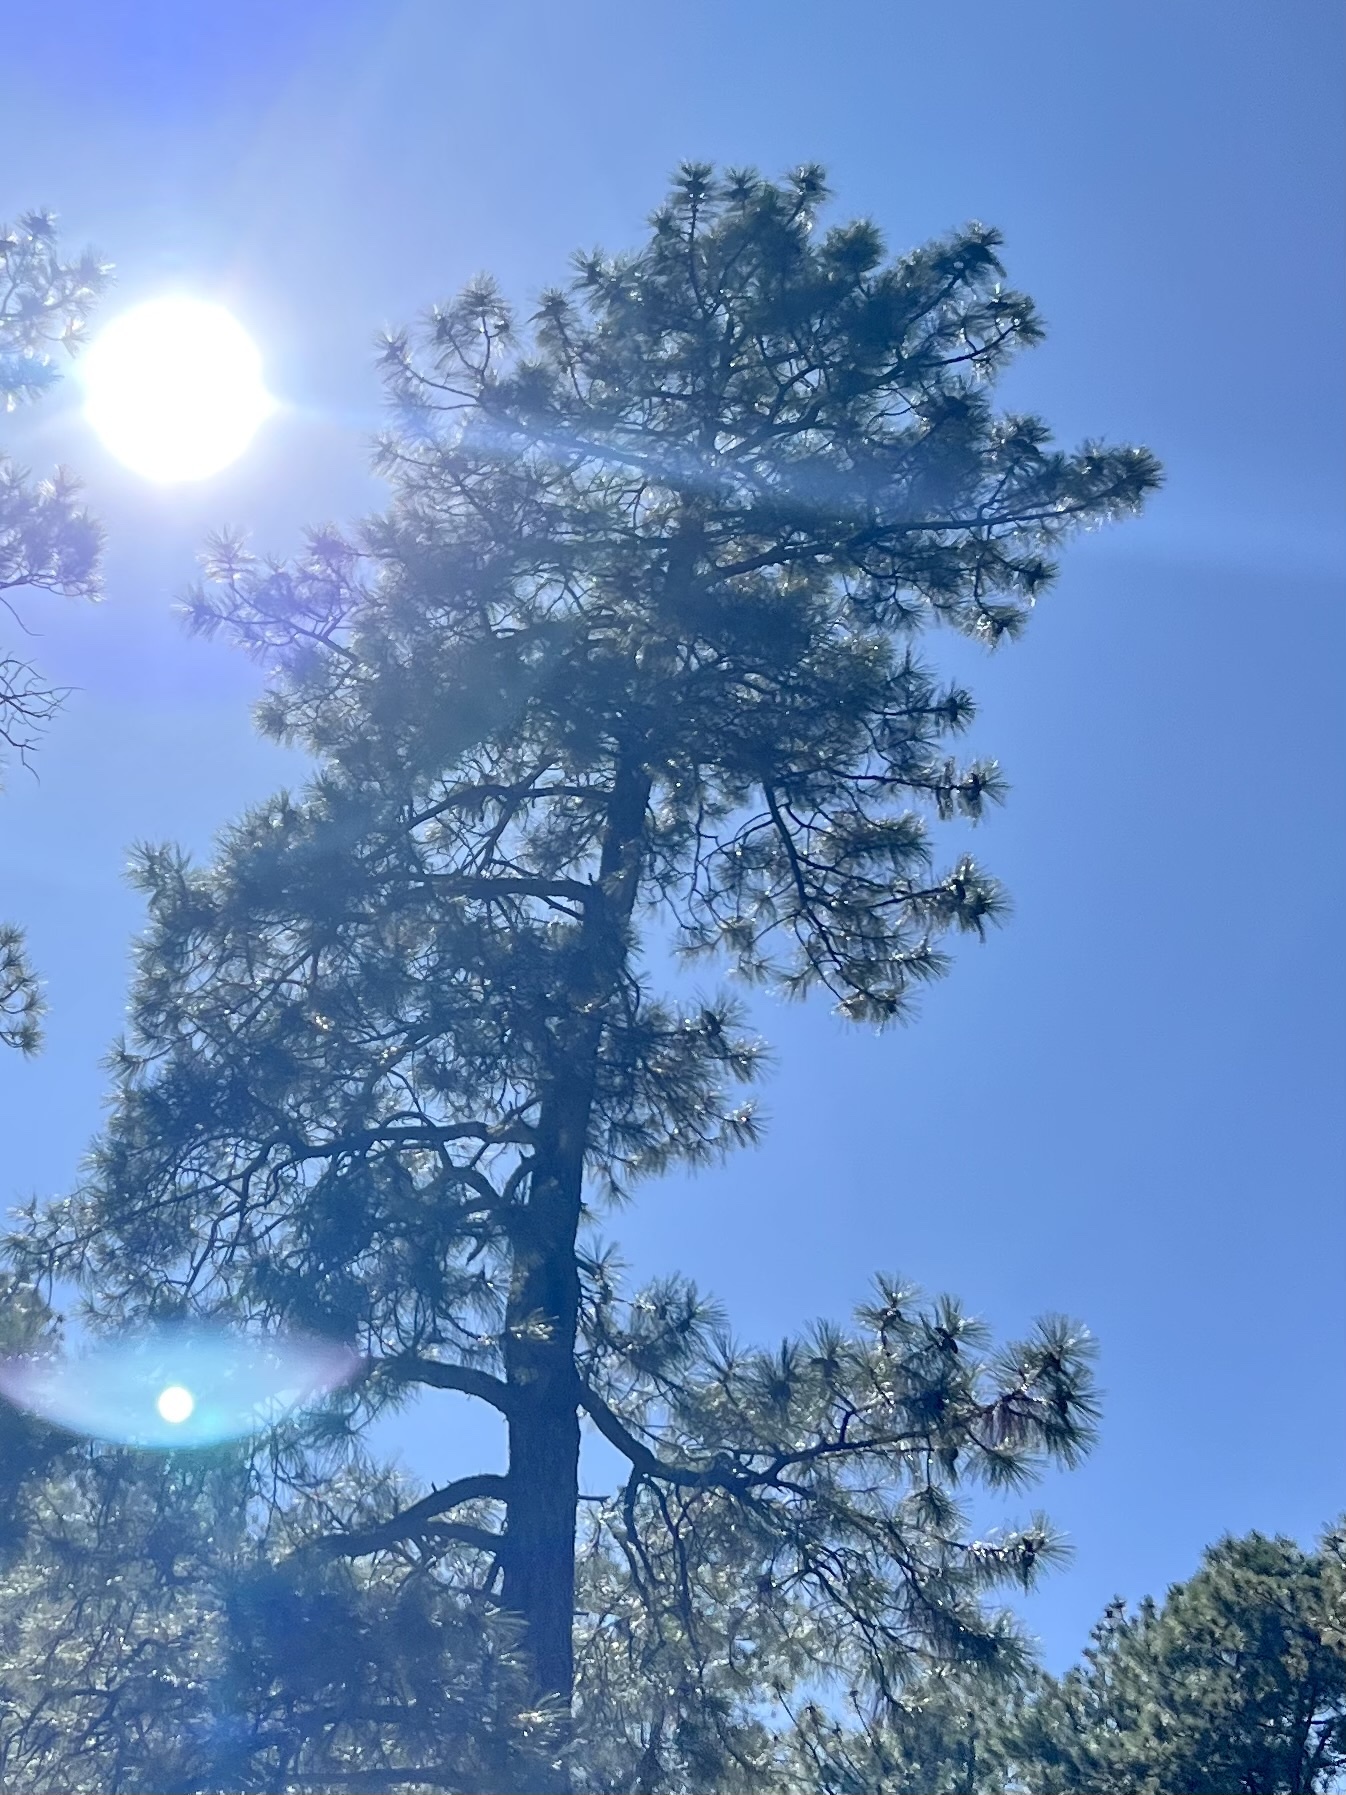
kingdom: Plantae
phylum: Tracheophyta
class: Pinopsida
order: Pinales
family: Pinaceae
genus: Pinus
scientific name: Pinus ponderosa
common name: Western yellow-pine
